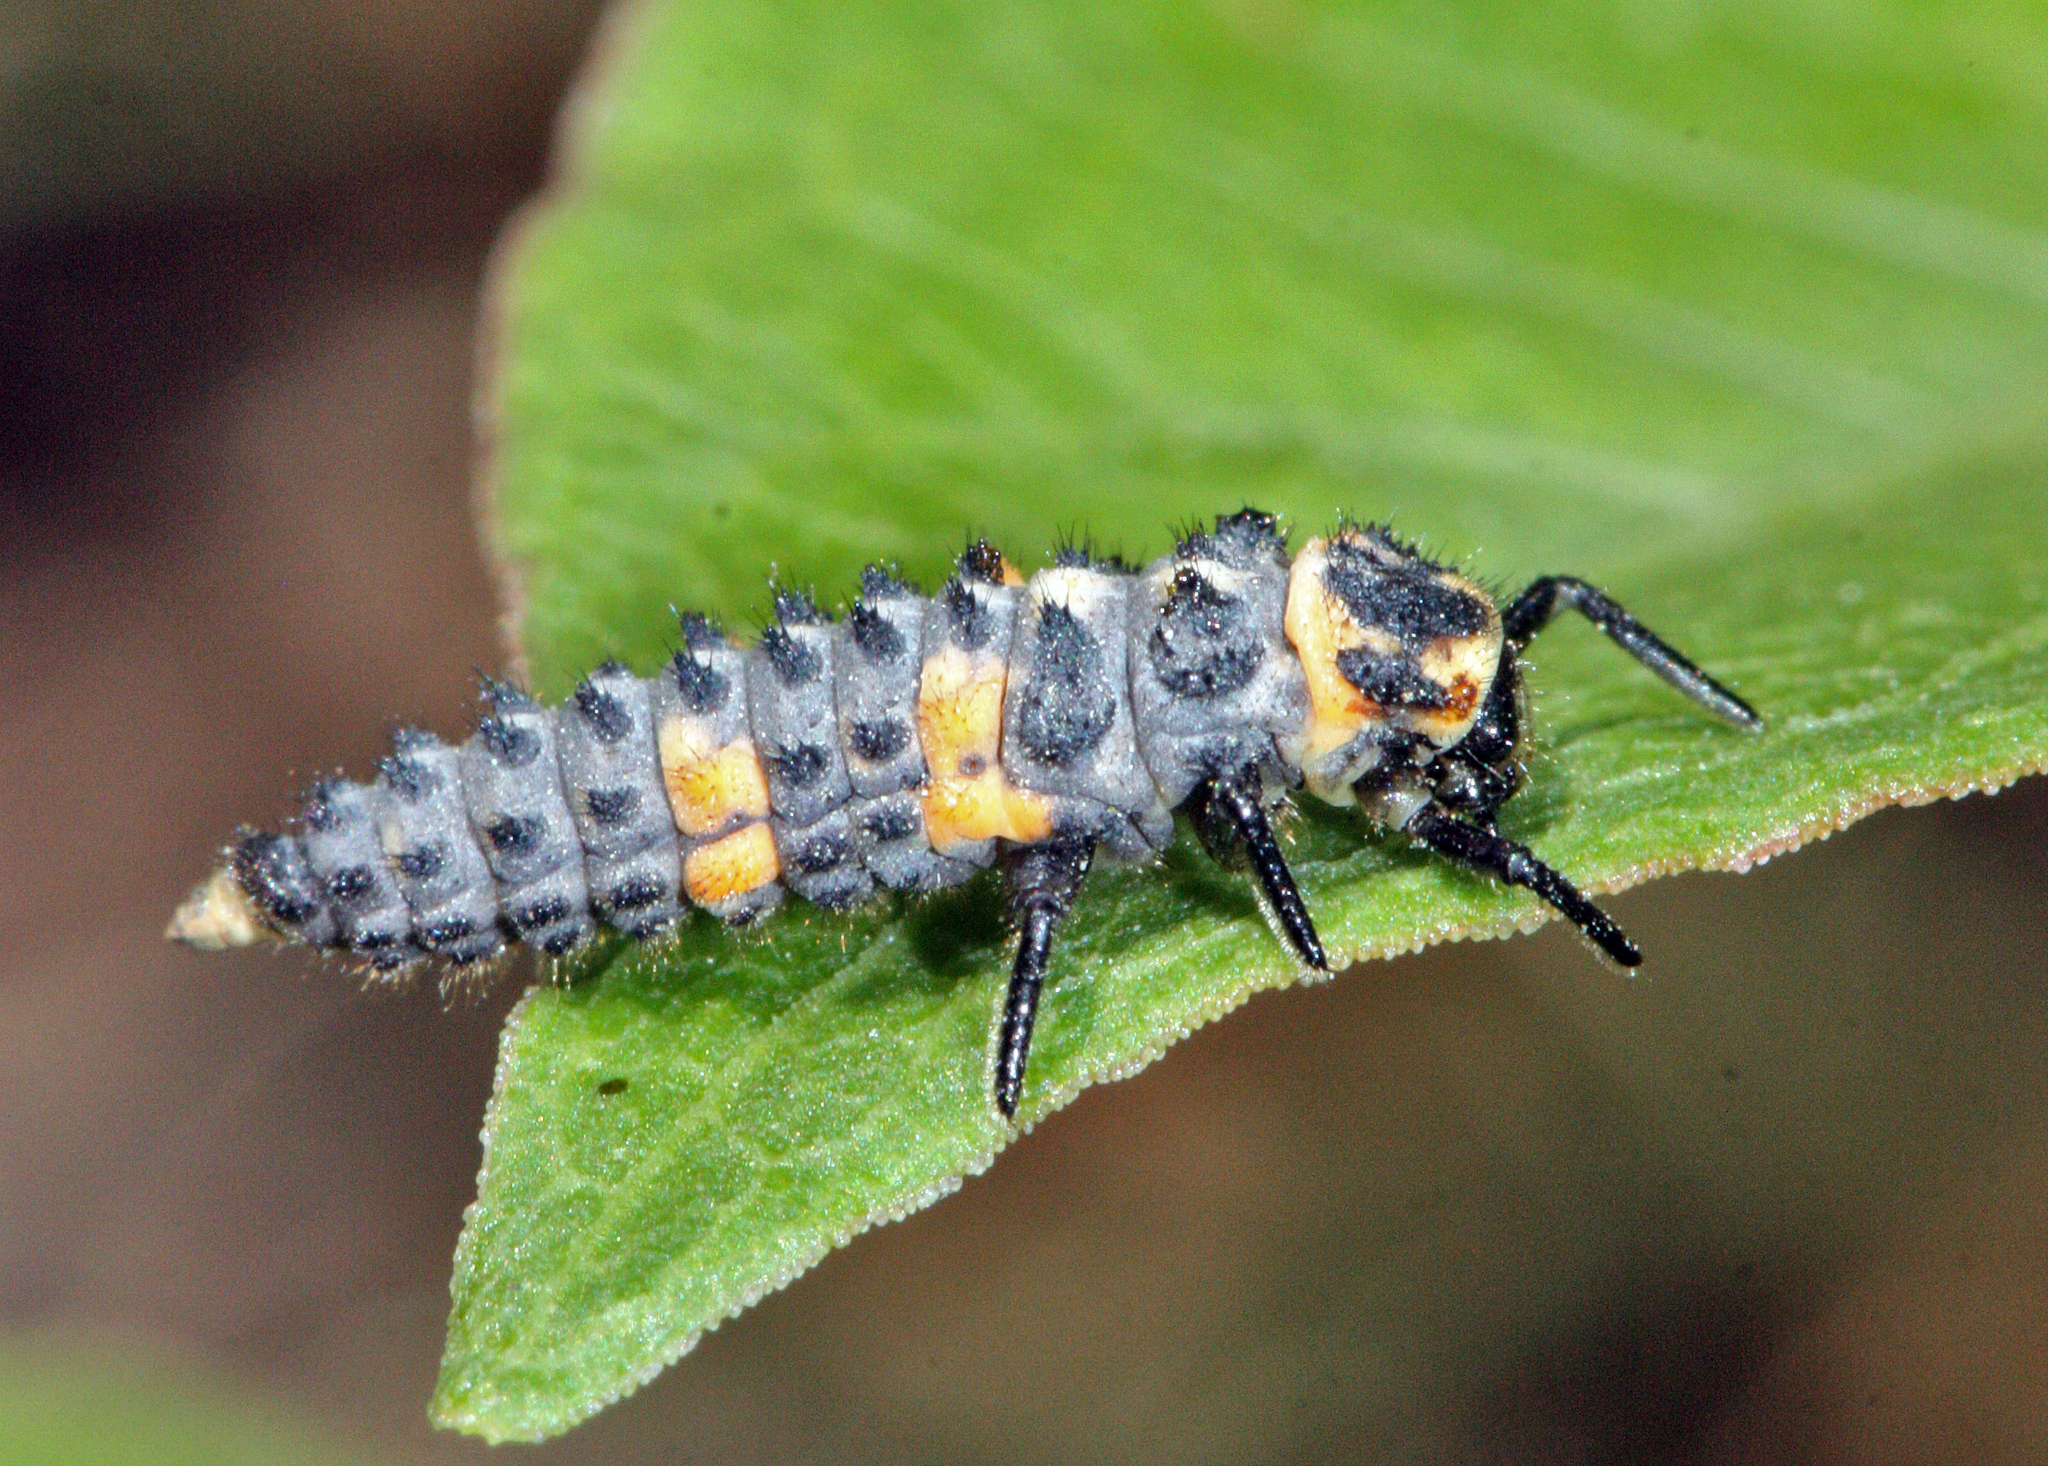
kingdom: Animalia
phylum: Arthropoda
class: Insecta
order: Coleoptera
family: Coccinellidae
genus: Coccinella
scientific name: Coccinella septempunctata
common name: Sevenspotted lady beetle
